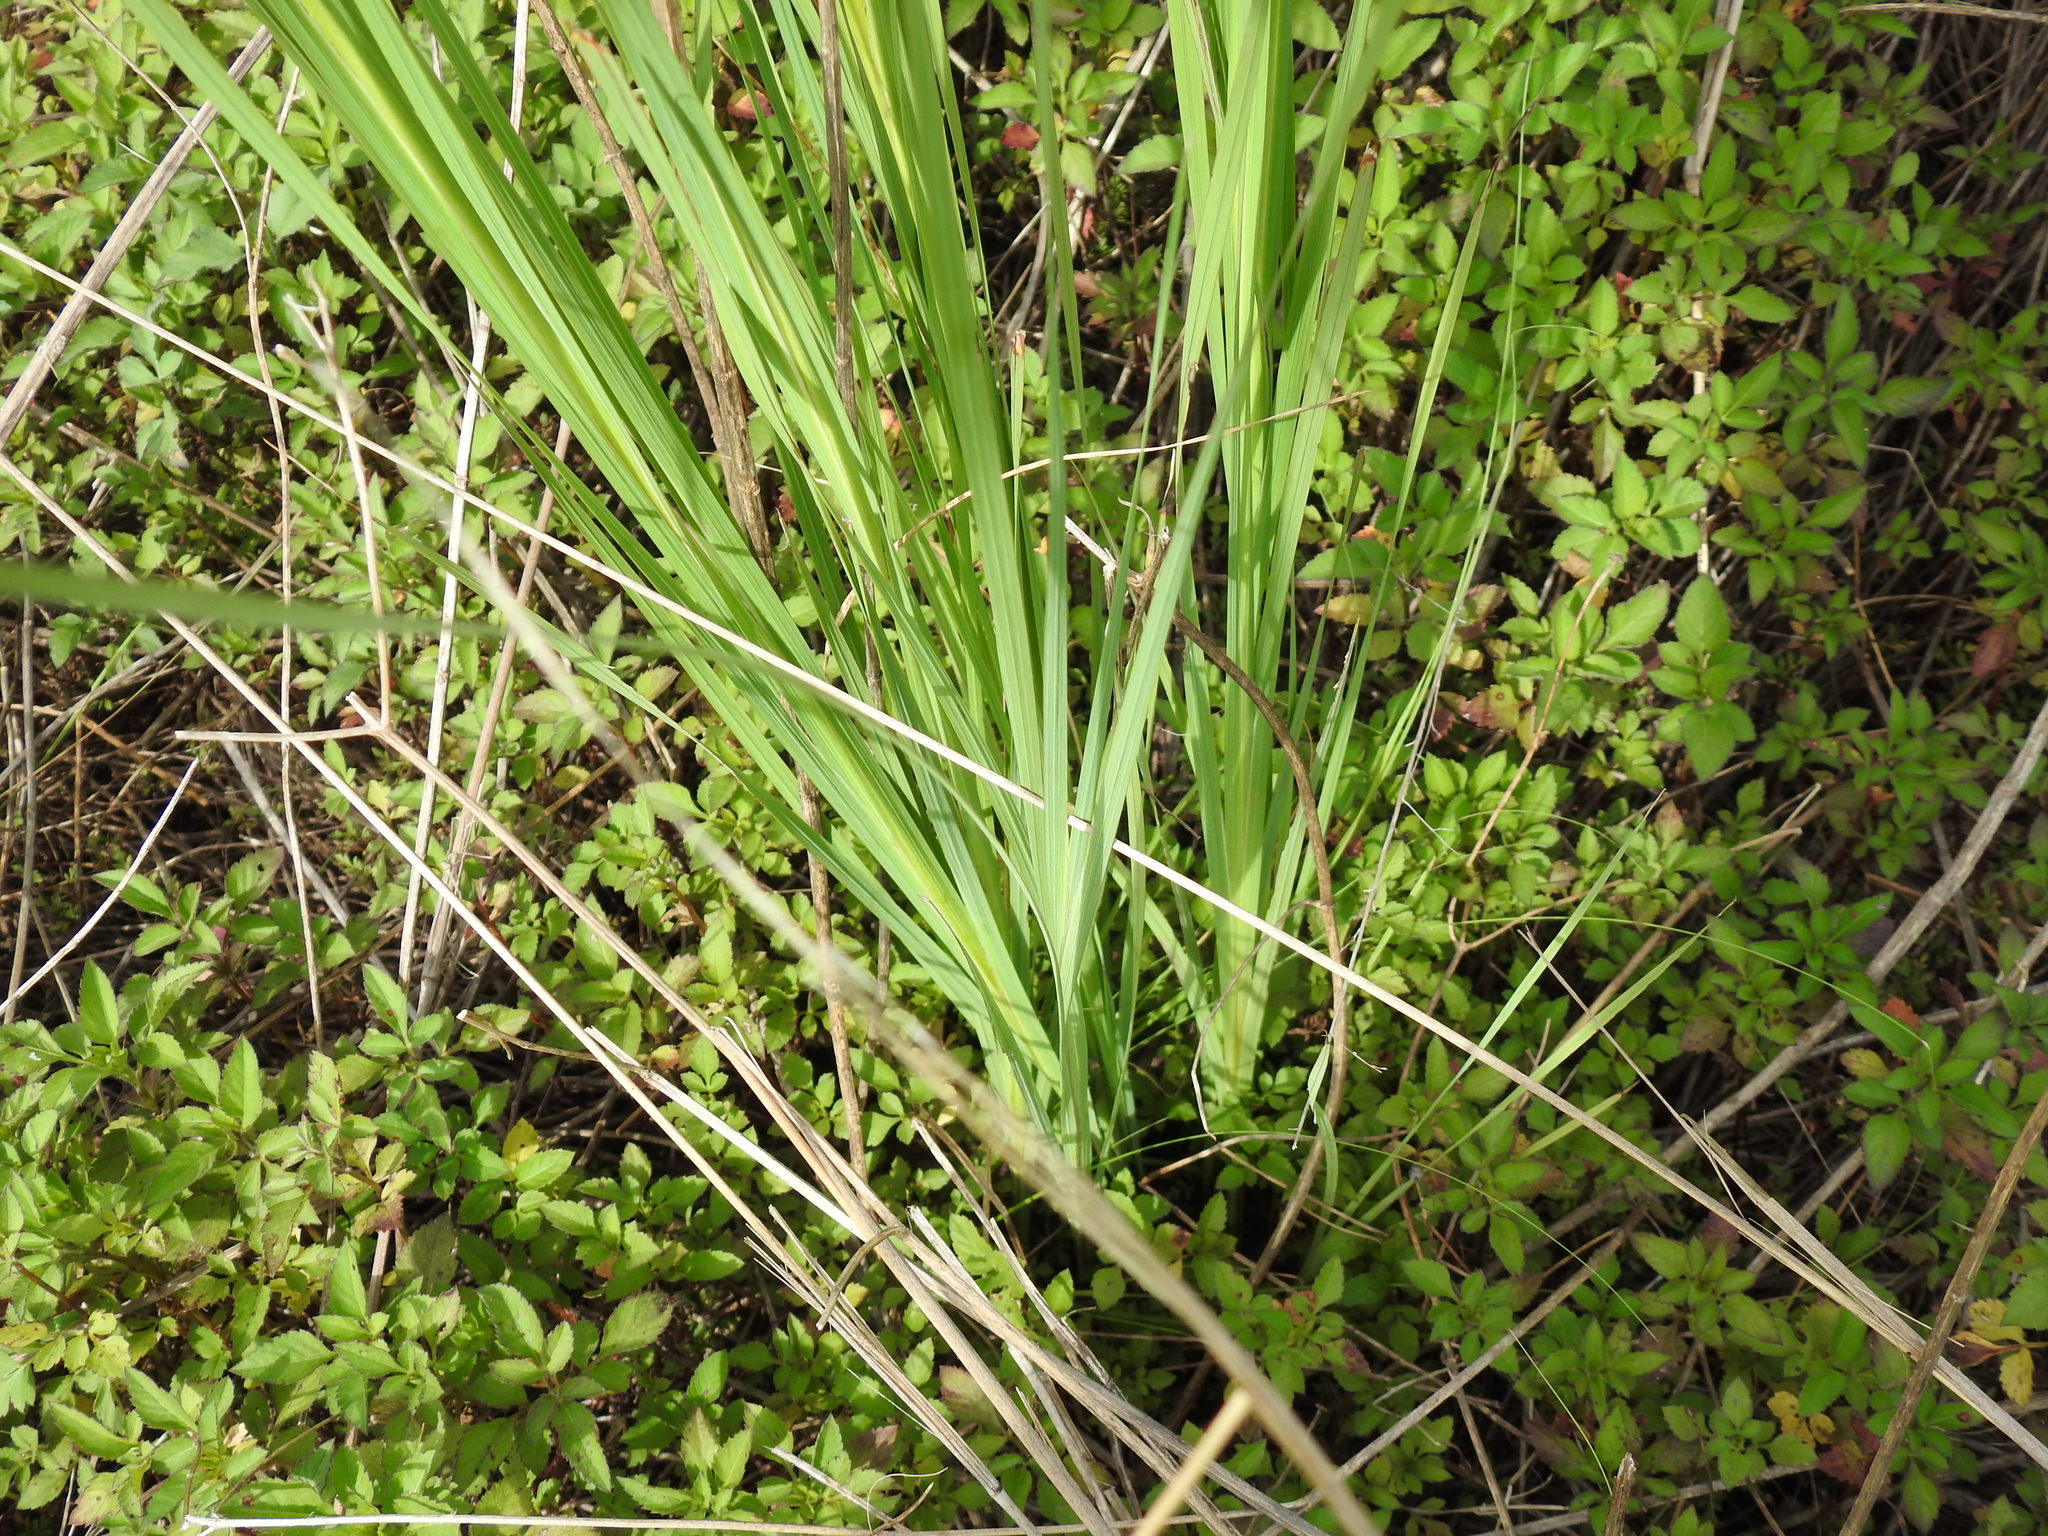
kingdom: Plantae
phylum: Tracheophyta
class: Liliopsida
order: Asparagales
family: Iridaceae
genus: Tritonia
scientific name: Tritonia nelsonii
